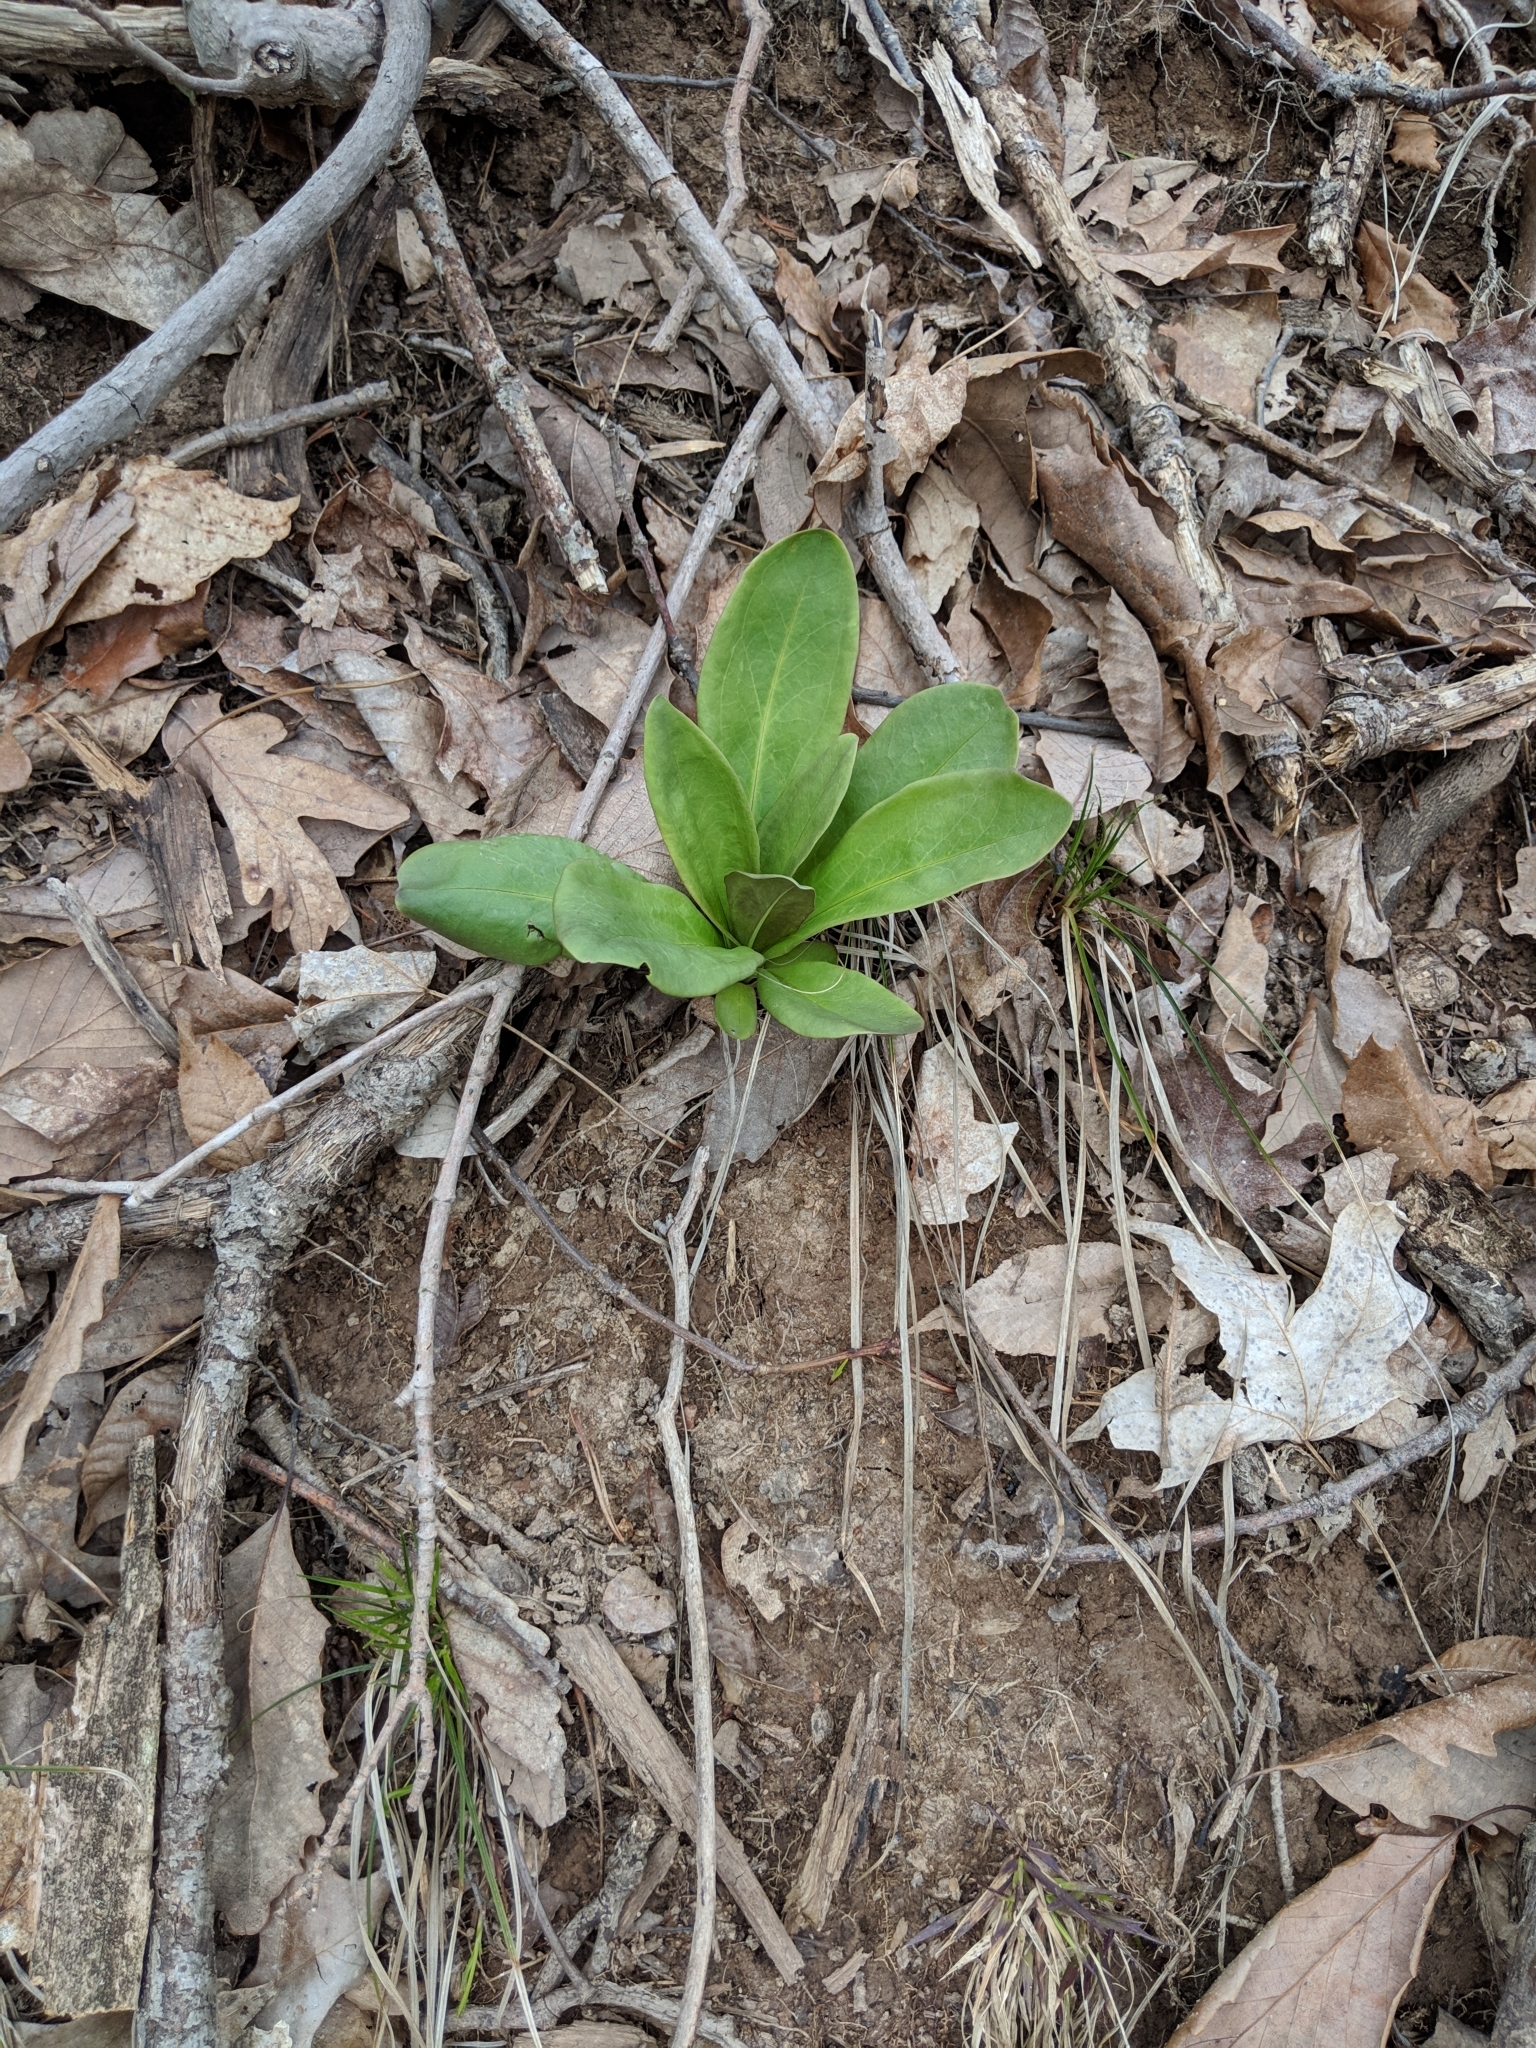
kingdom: Plantae
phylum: Tracheophyta
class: Magnoliopsida
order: Gentianales
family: Gentianaceae
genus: Frasera
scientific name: Frasera caroliniensis
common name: American columbo
